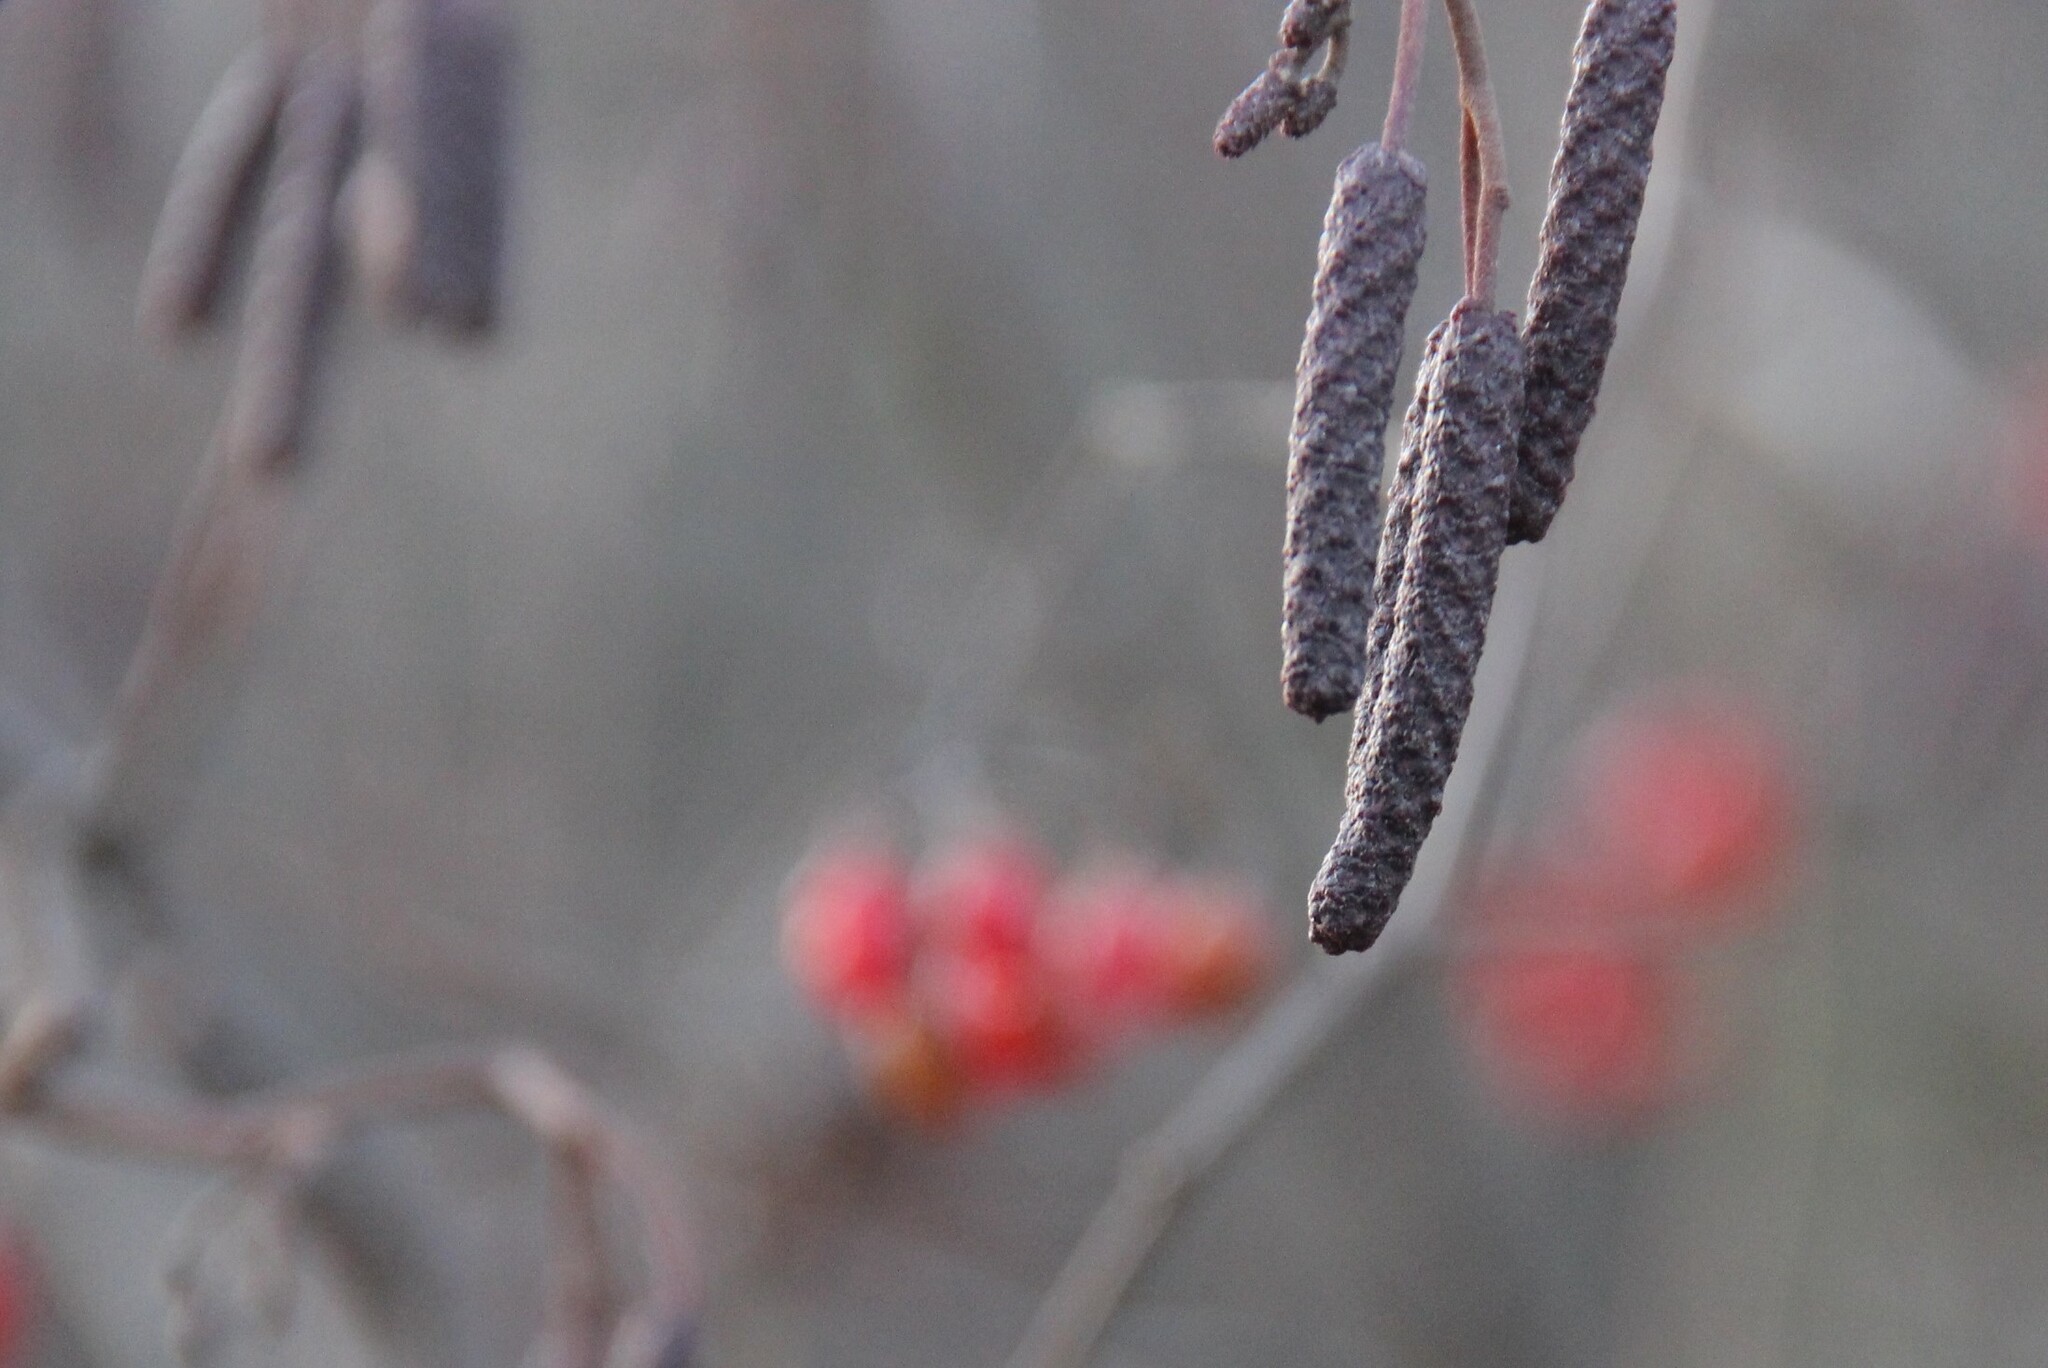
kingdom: Plantae
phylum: Tracheophyta
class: Magnoliopsida
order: Fagales
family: Betulaceae
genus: Alnus
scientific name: Alnus glutinosa
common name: Black alder
